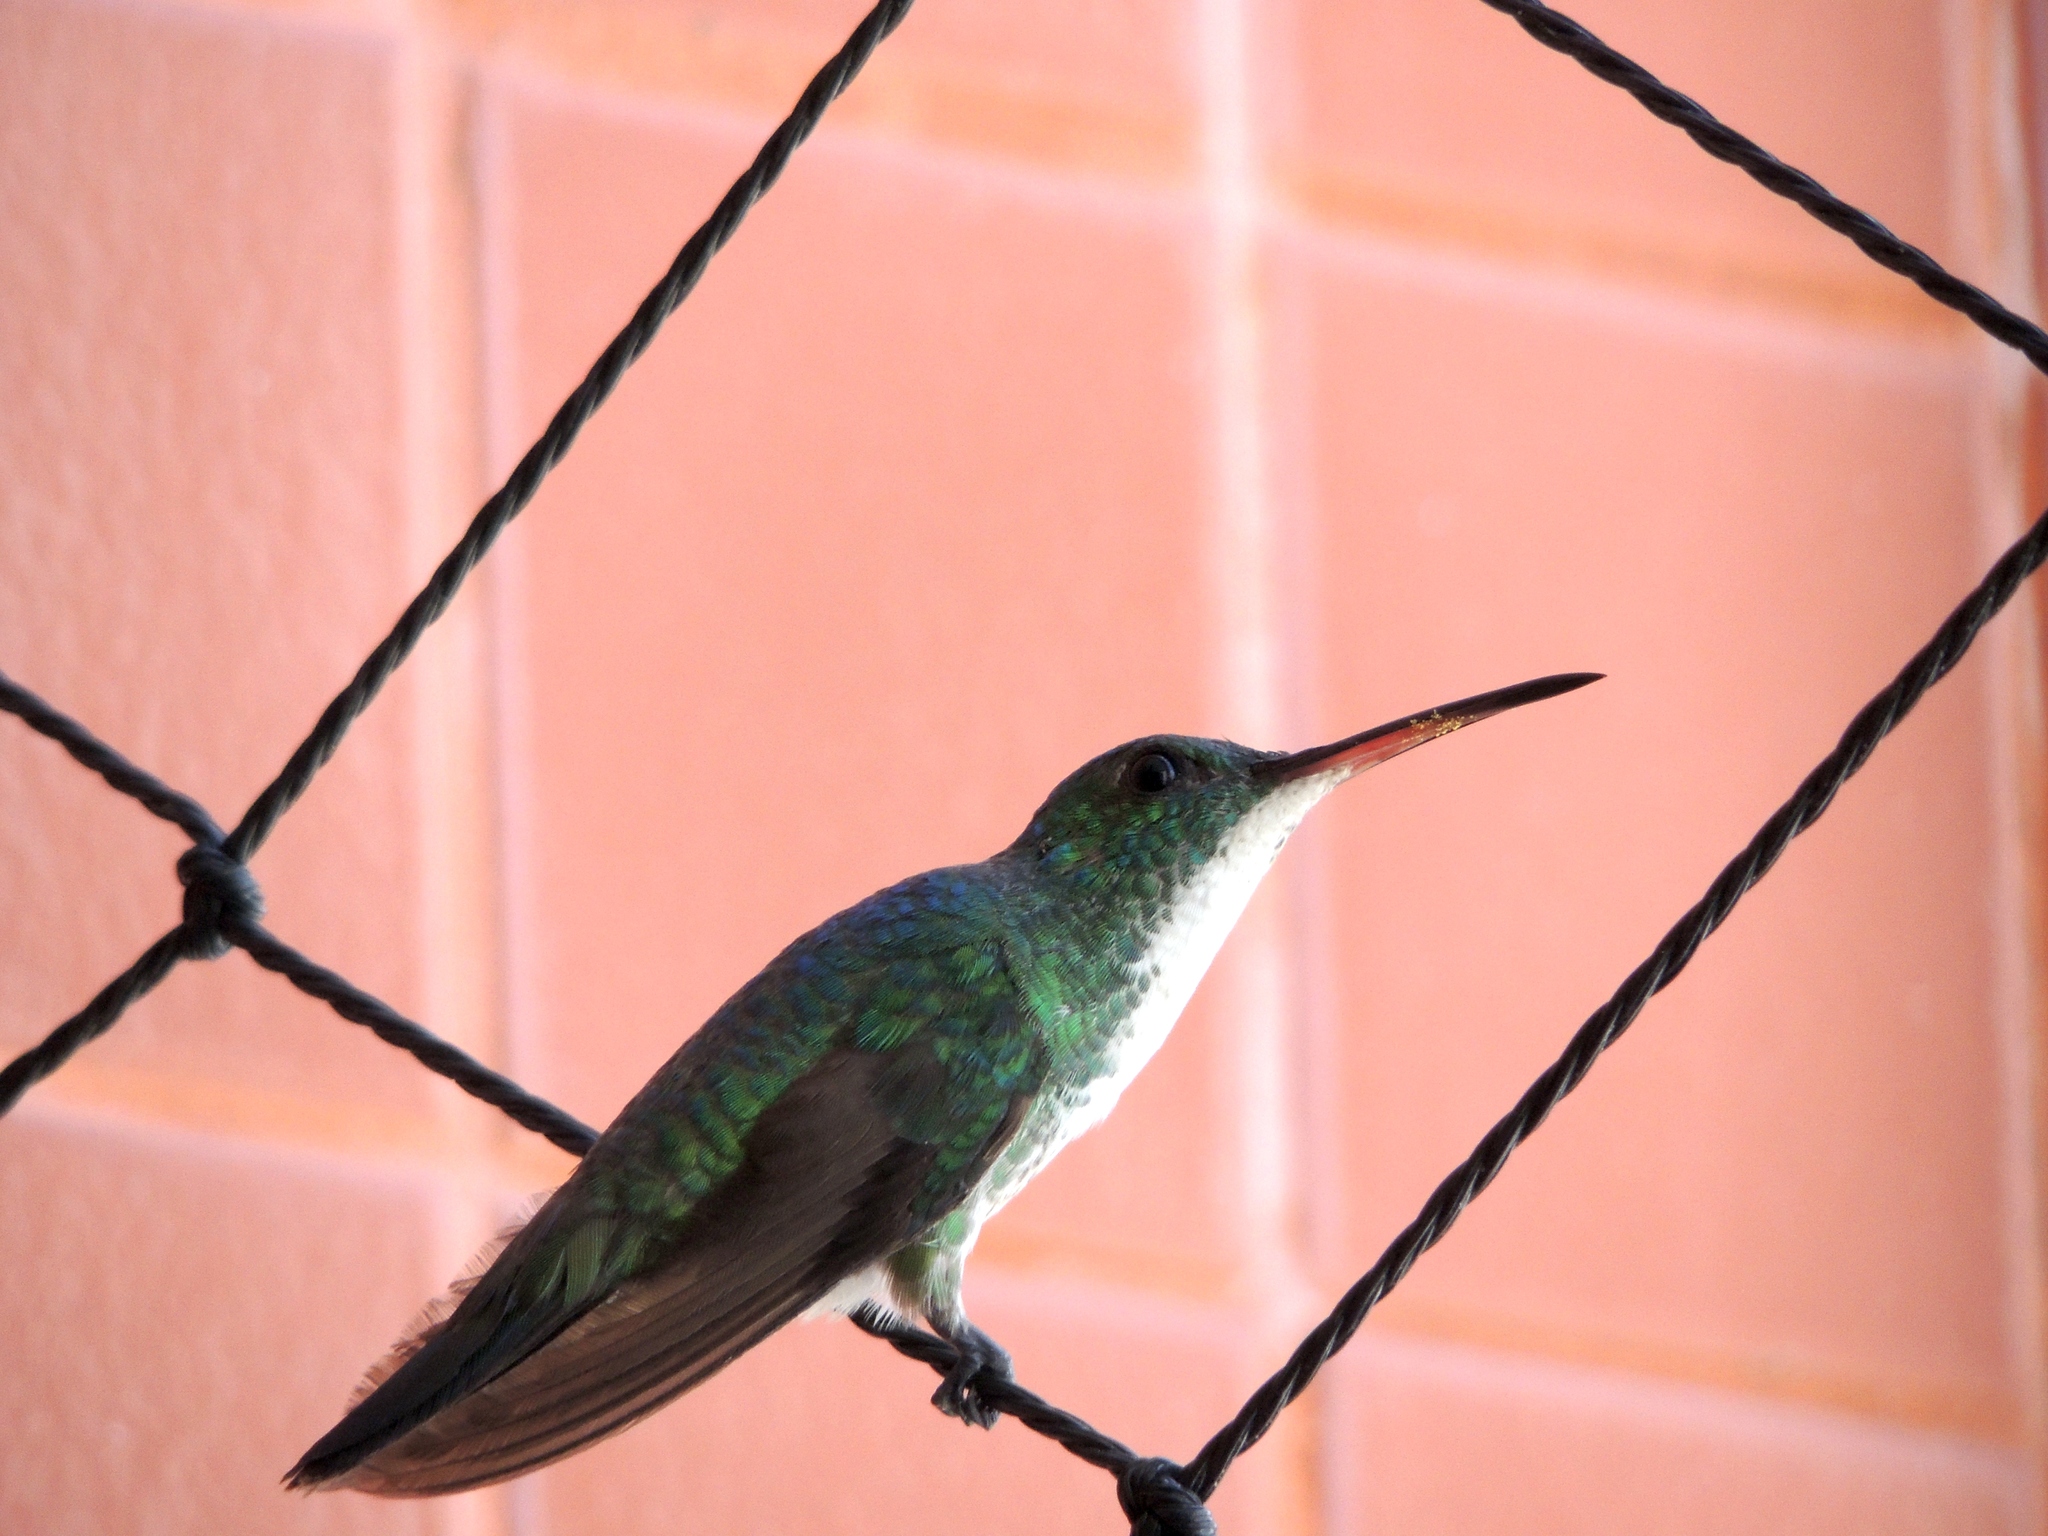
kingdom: Animalia
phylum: Chordata
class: Aves
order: Apodiformes
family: Trochilidae
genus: Chrysuronia
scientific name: Chrysuronia leucogaster
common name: Plain-bellied emerald
